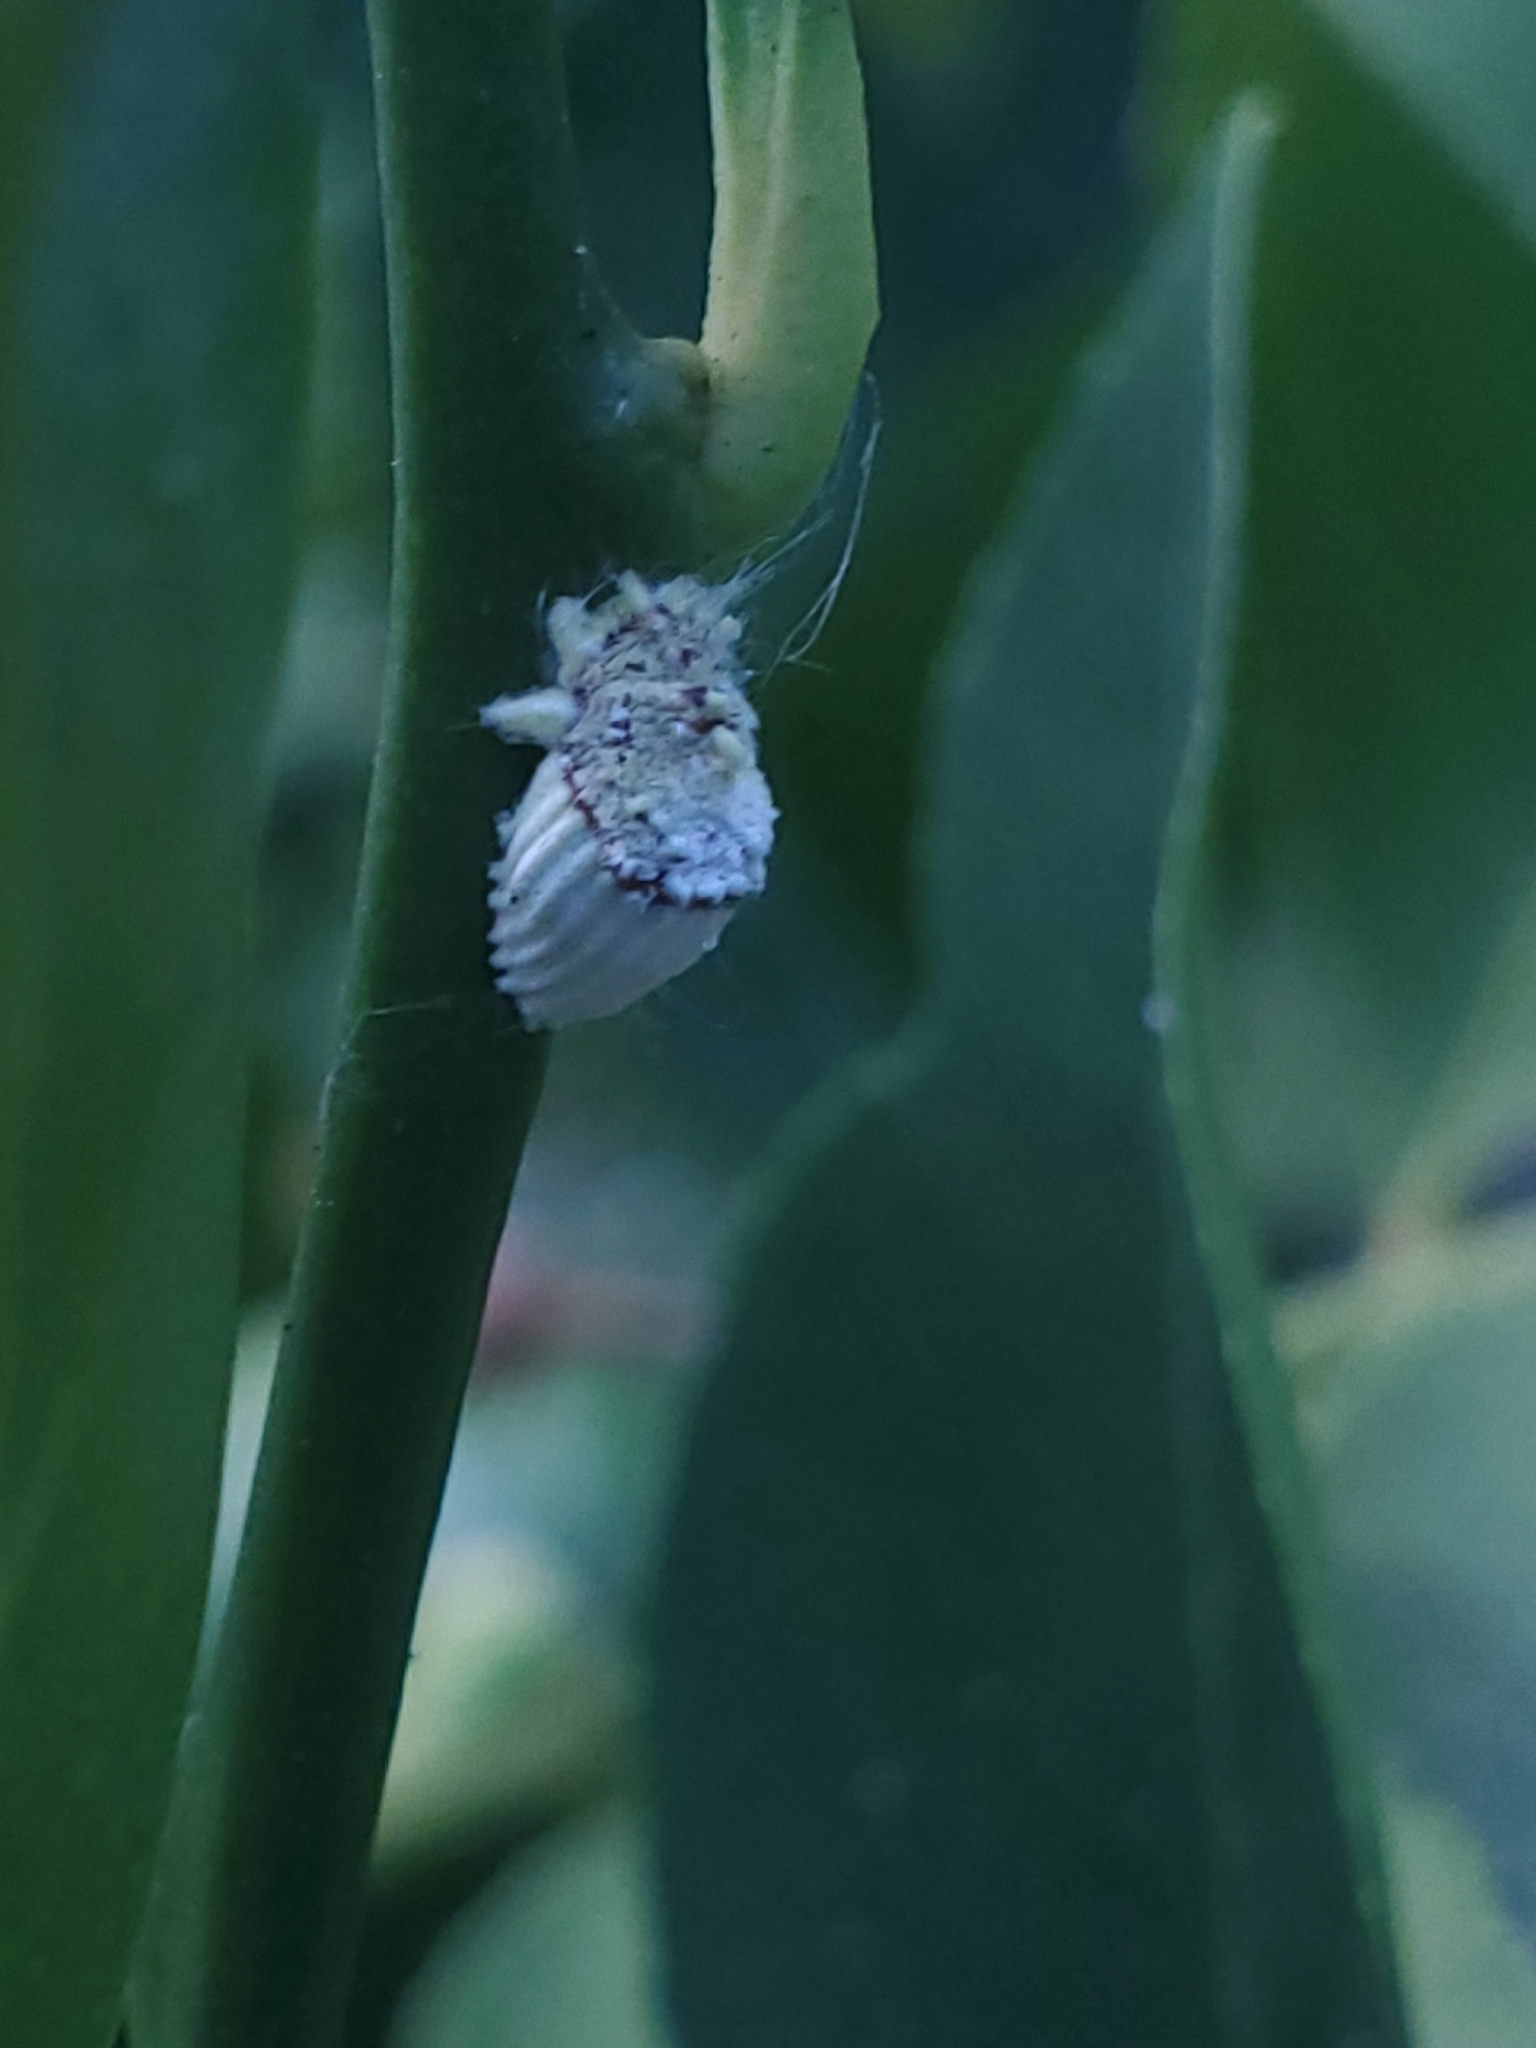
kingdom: Animalia
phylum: Arthropoda
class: Insecta
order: Hemiptera
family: Margarodidae
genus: Icerya
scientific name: Icerya purchasi
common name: Cottony cushion scale
